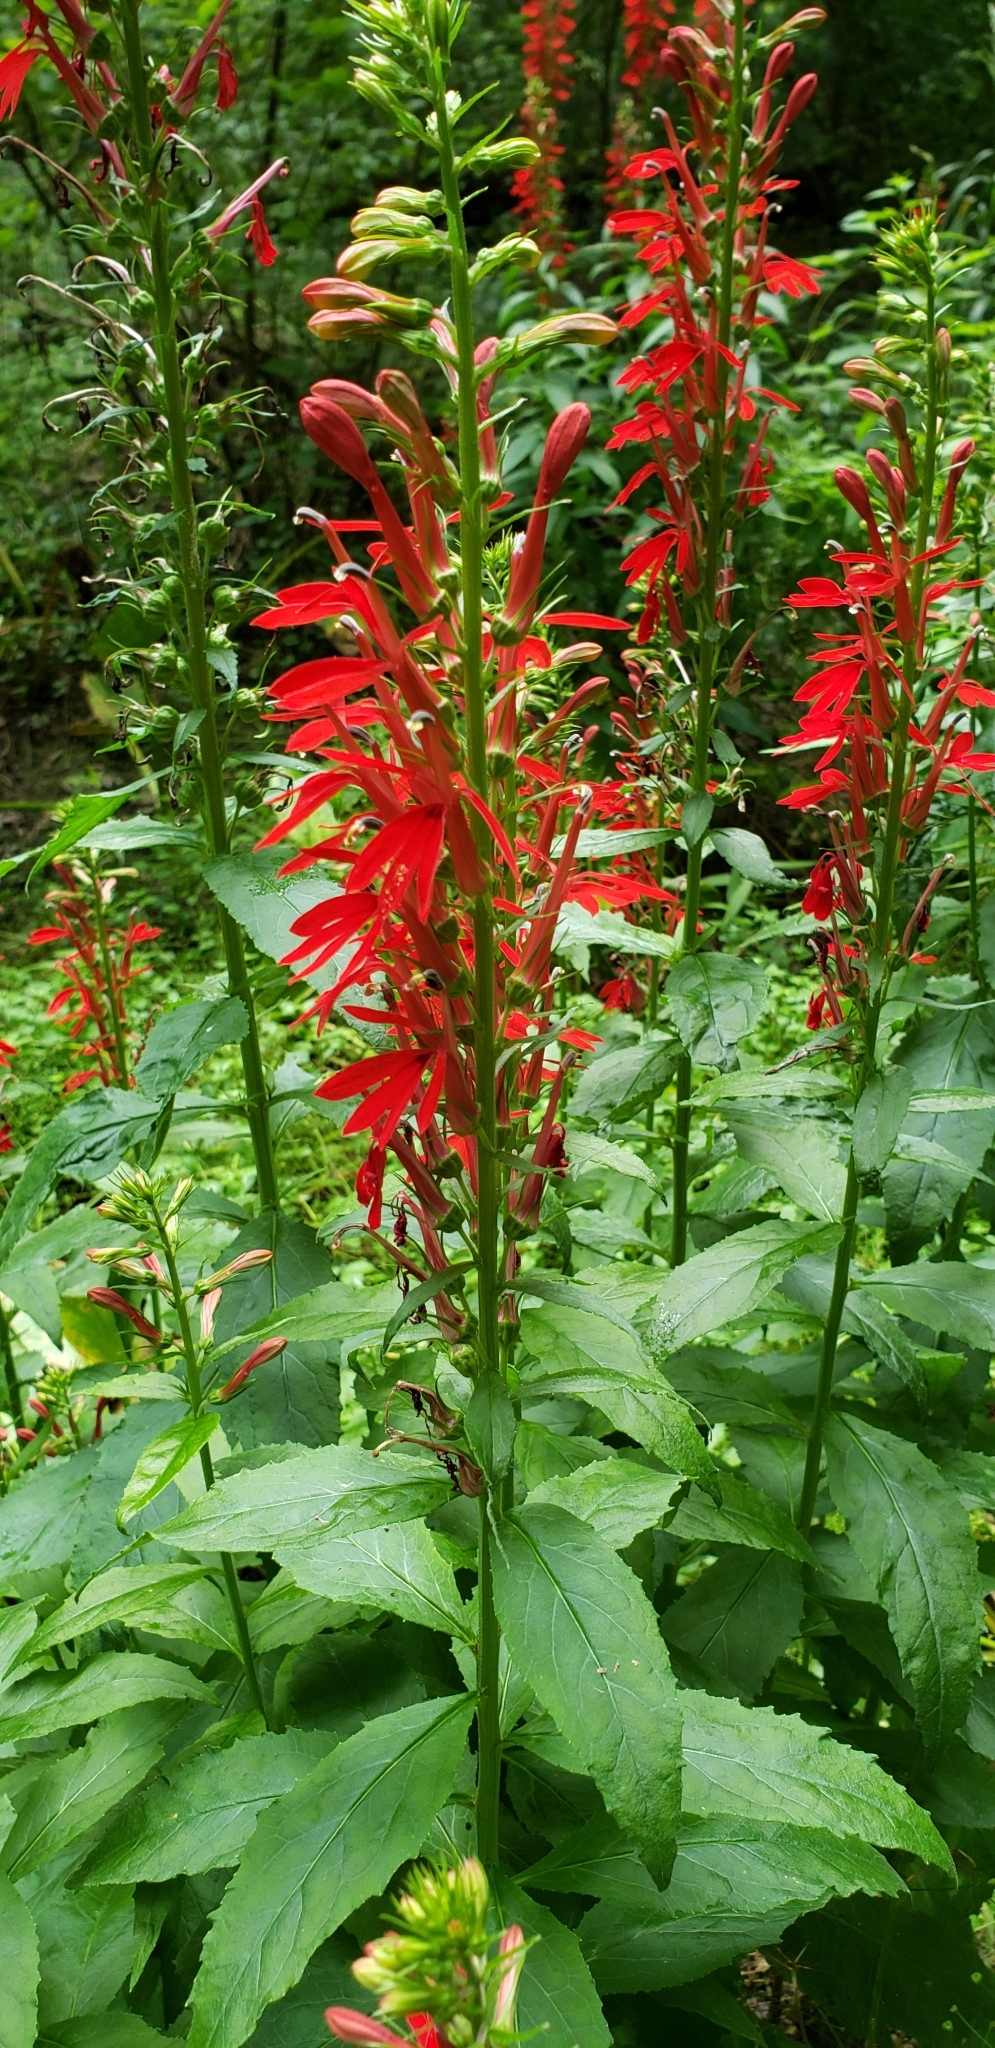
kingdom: Plantae
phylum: Tracheophyta
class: Magnoliopsida
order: Asterales
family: Campanulaceae
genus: Lobelia
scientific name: Lobelia cardinalis
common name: Cardinal flower
